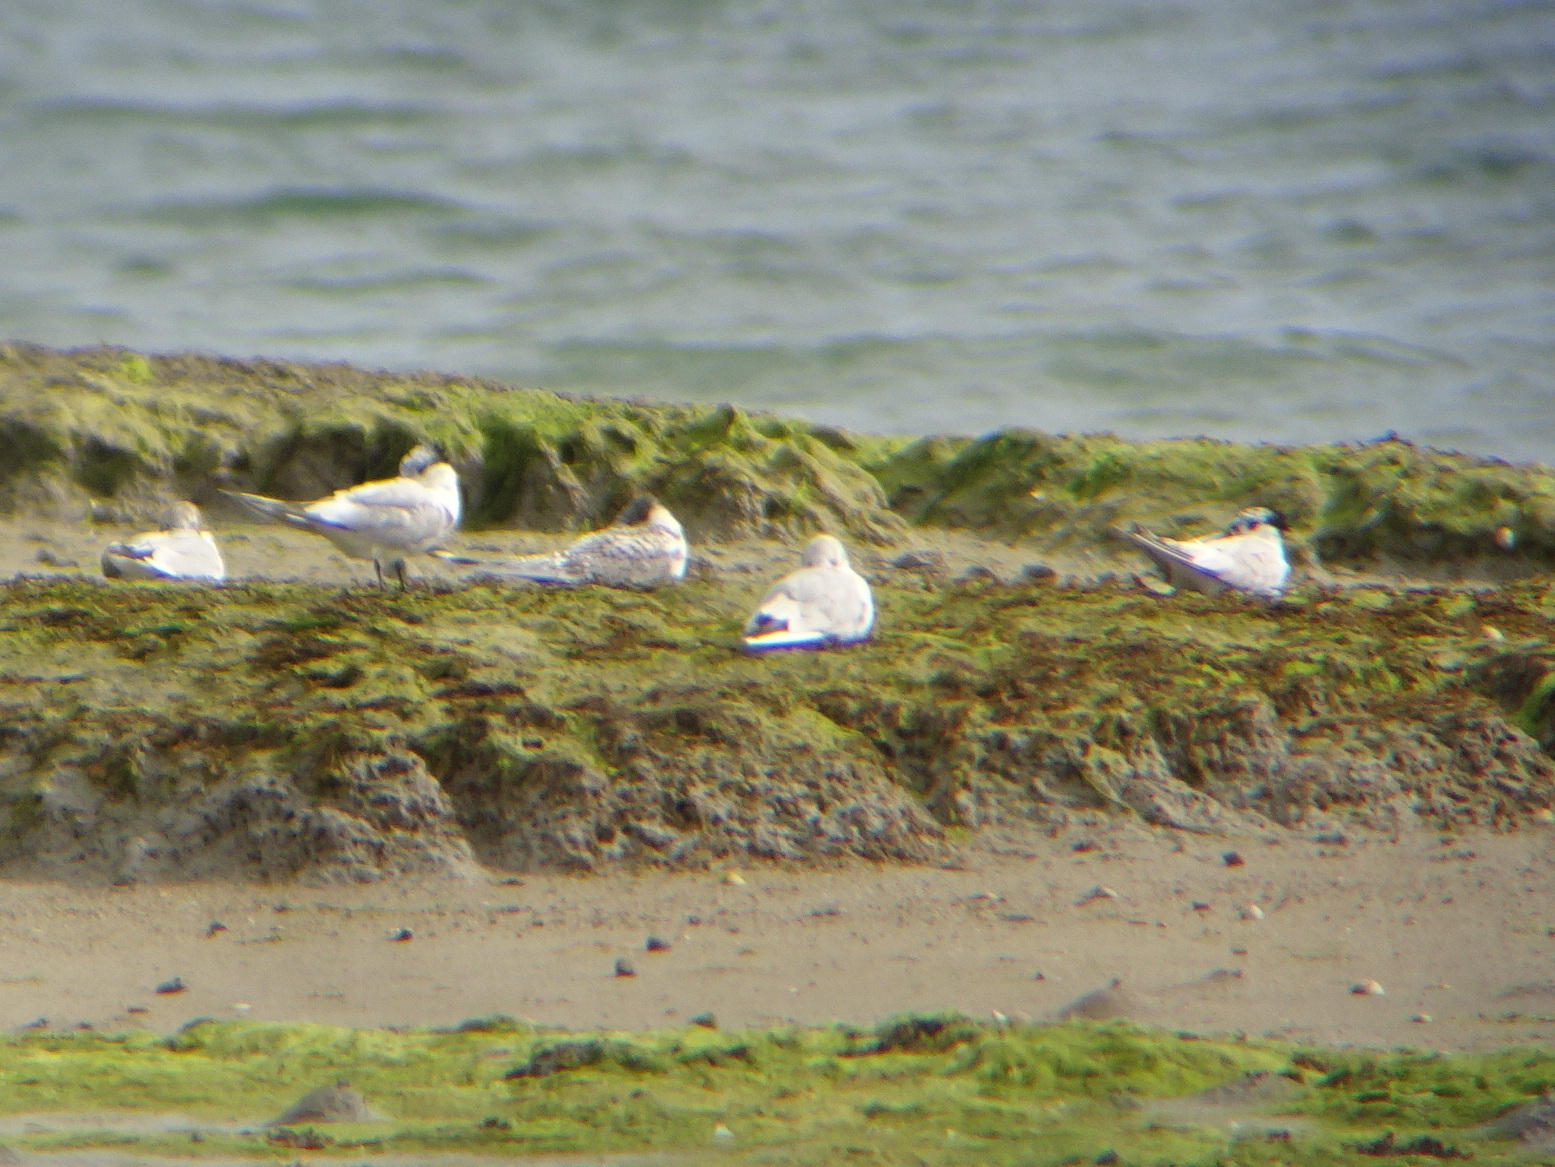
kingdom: Animalia
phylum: Chordata
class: Aves
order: Charadriiformes
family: Laridae
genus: Thalasseus
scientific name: Thalasseus sandvicensis
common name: Sandwich tern
